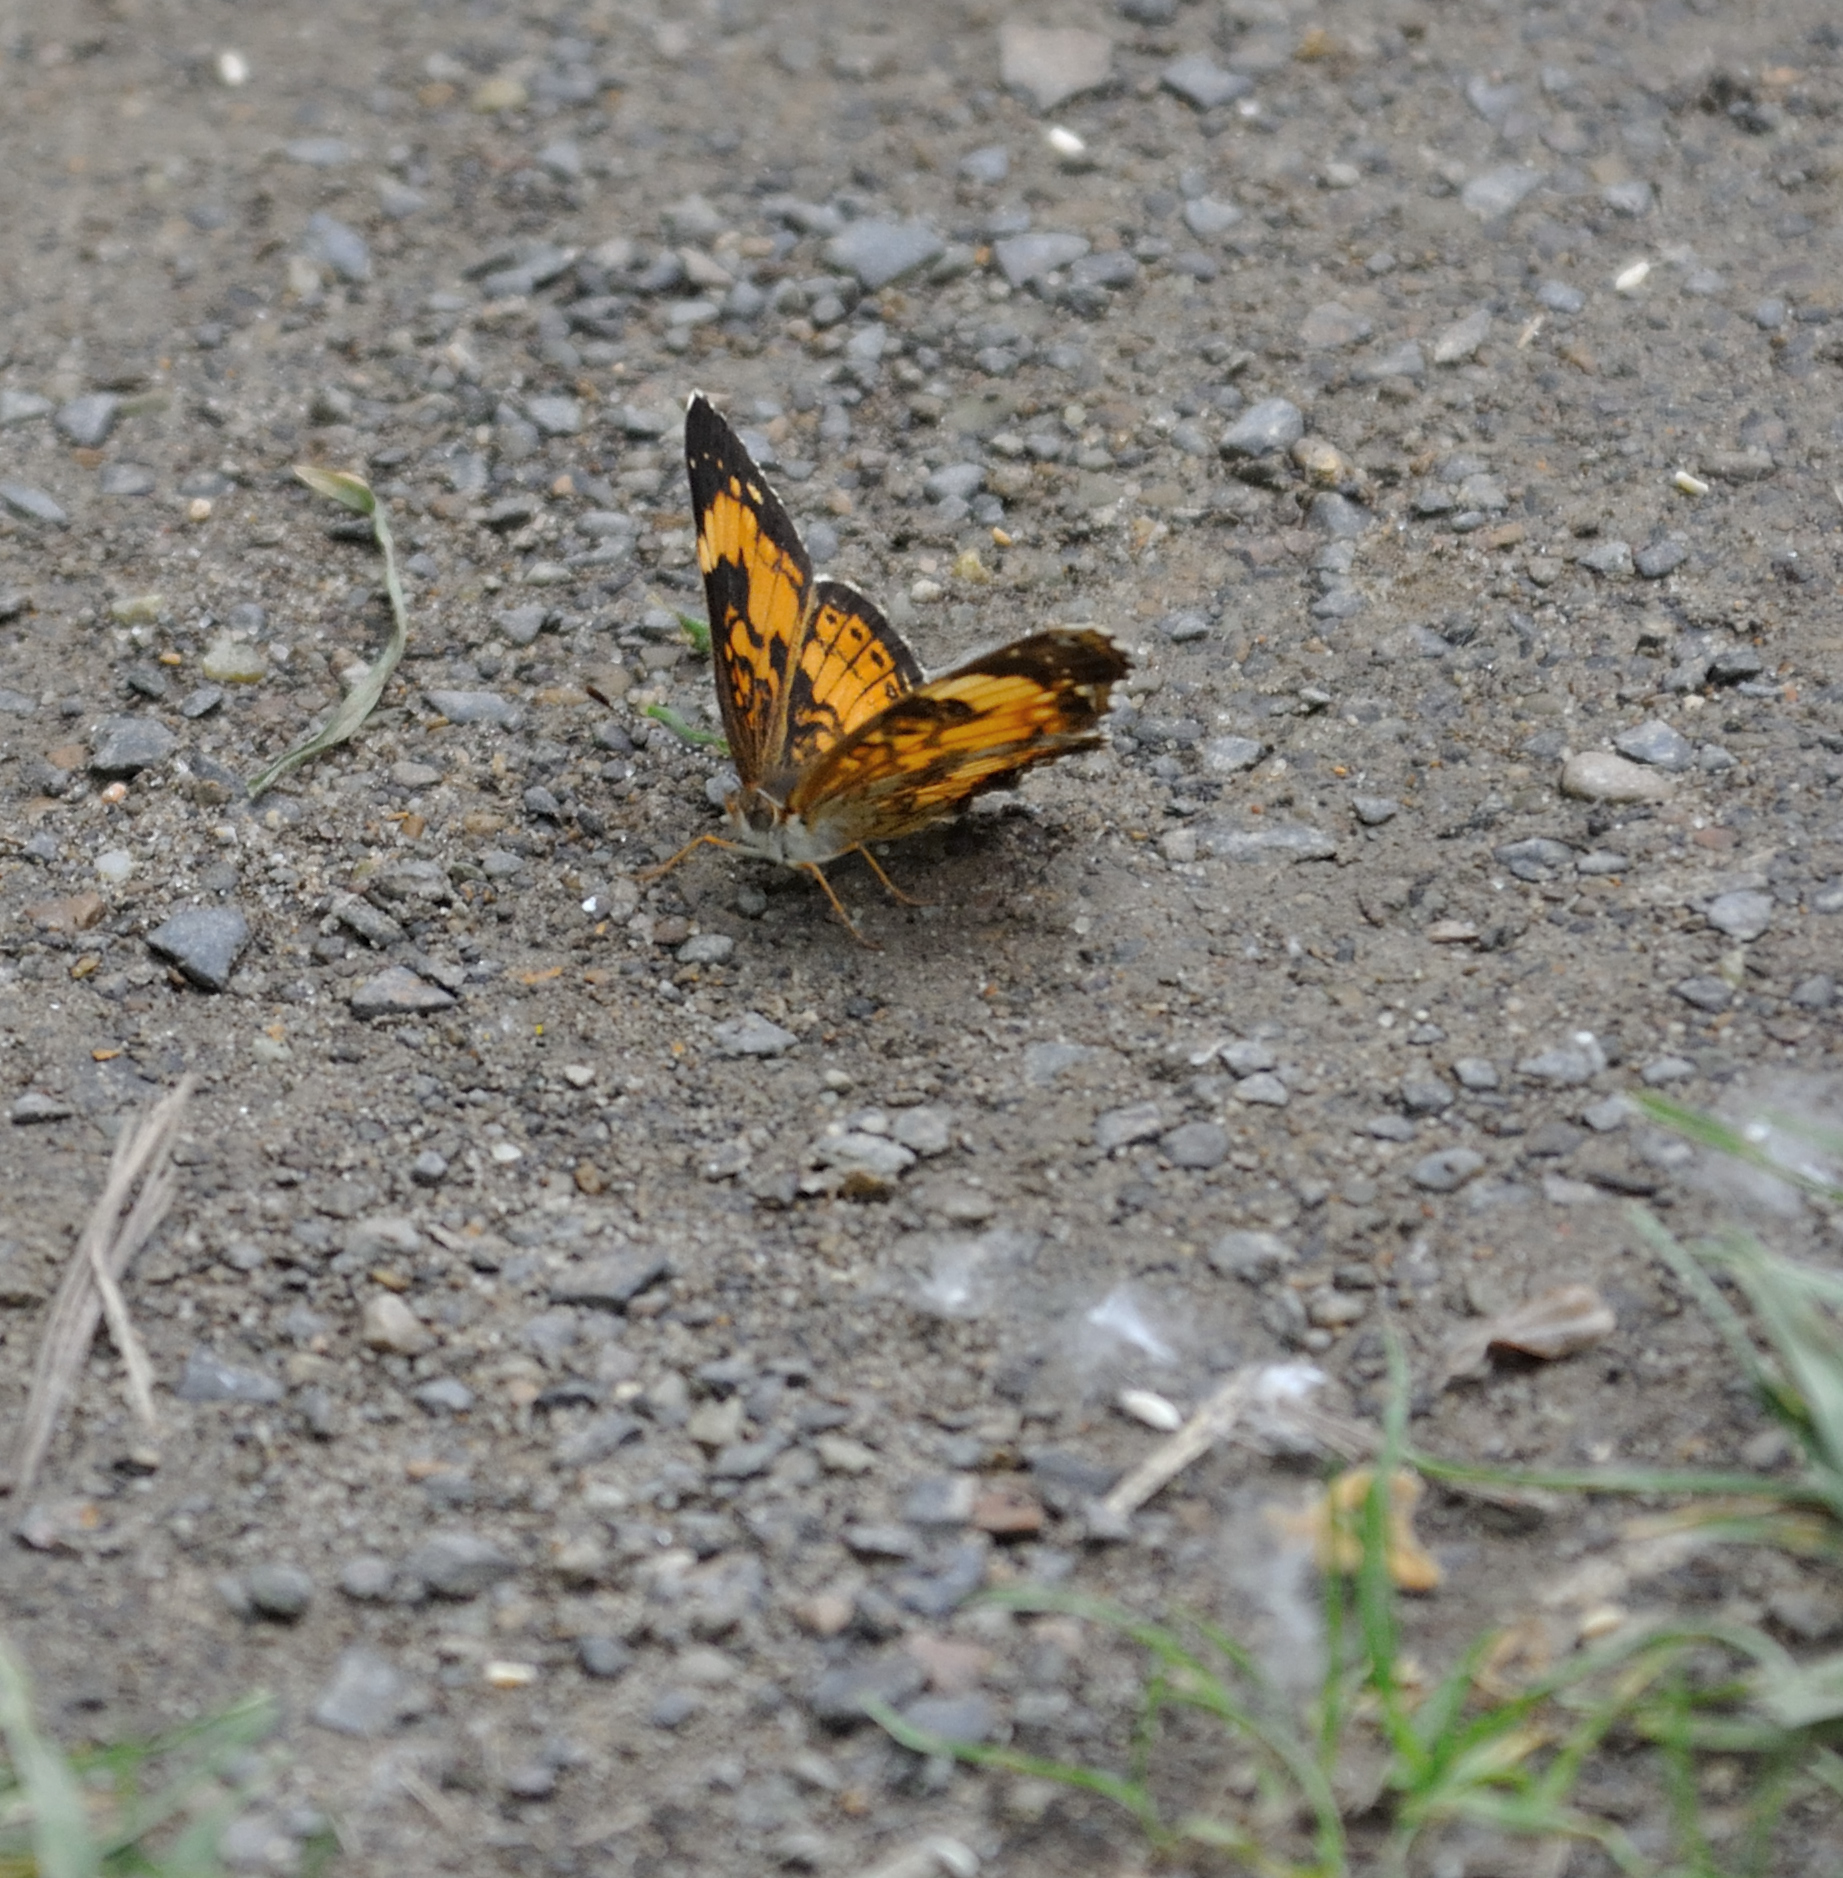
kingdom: Animalia
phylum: Arthropoda
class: Insecta
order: Lepidoptera
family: Nymphalidae
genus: Chlosyne
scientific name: Chlosyne nycteis
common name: Silvery checkerspot
